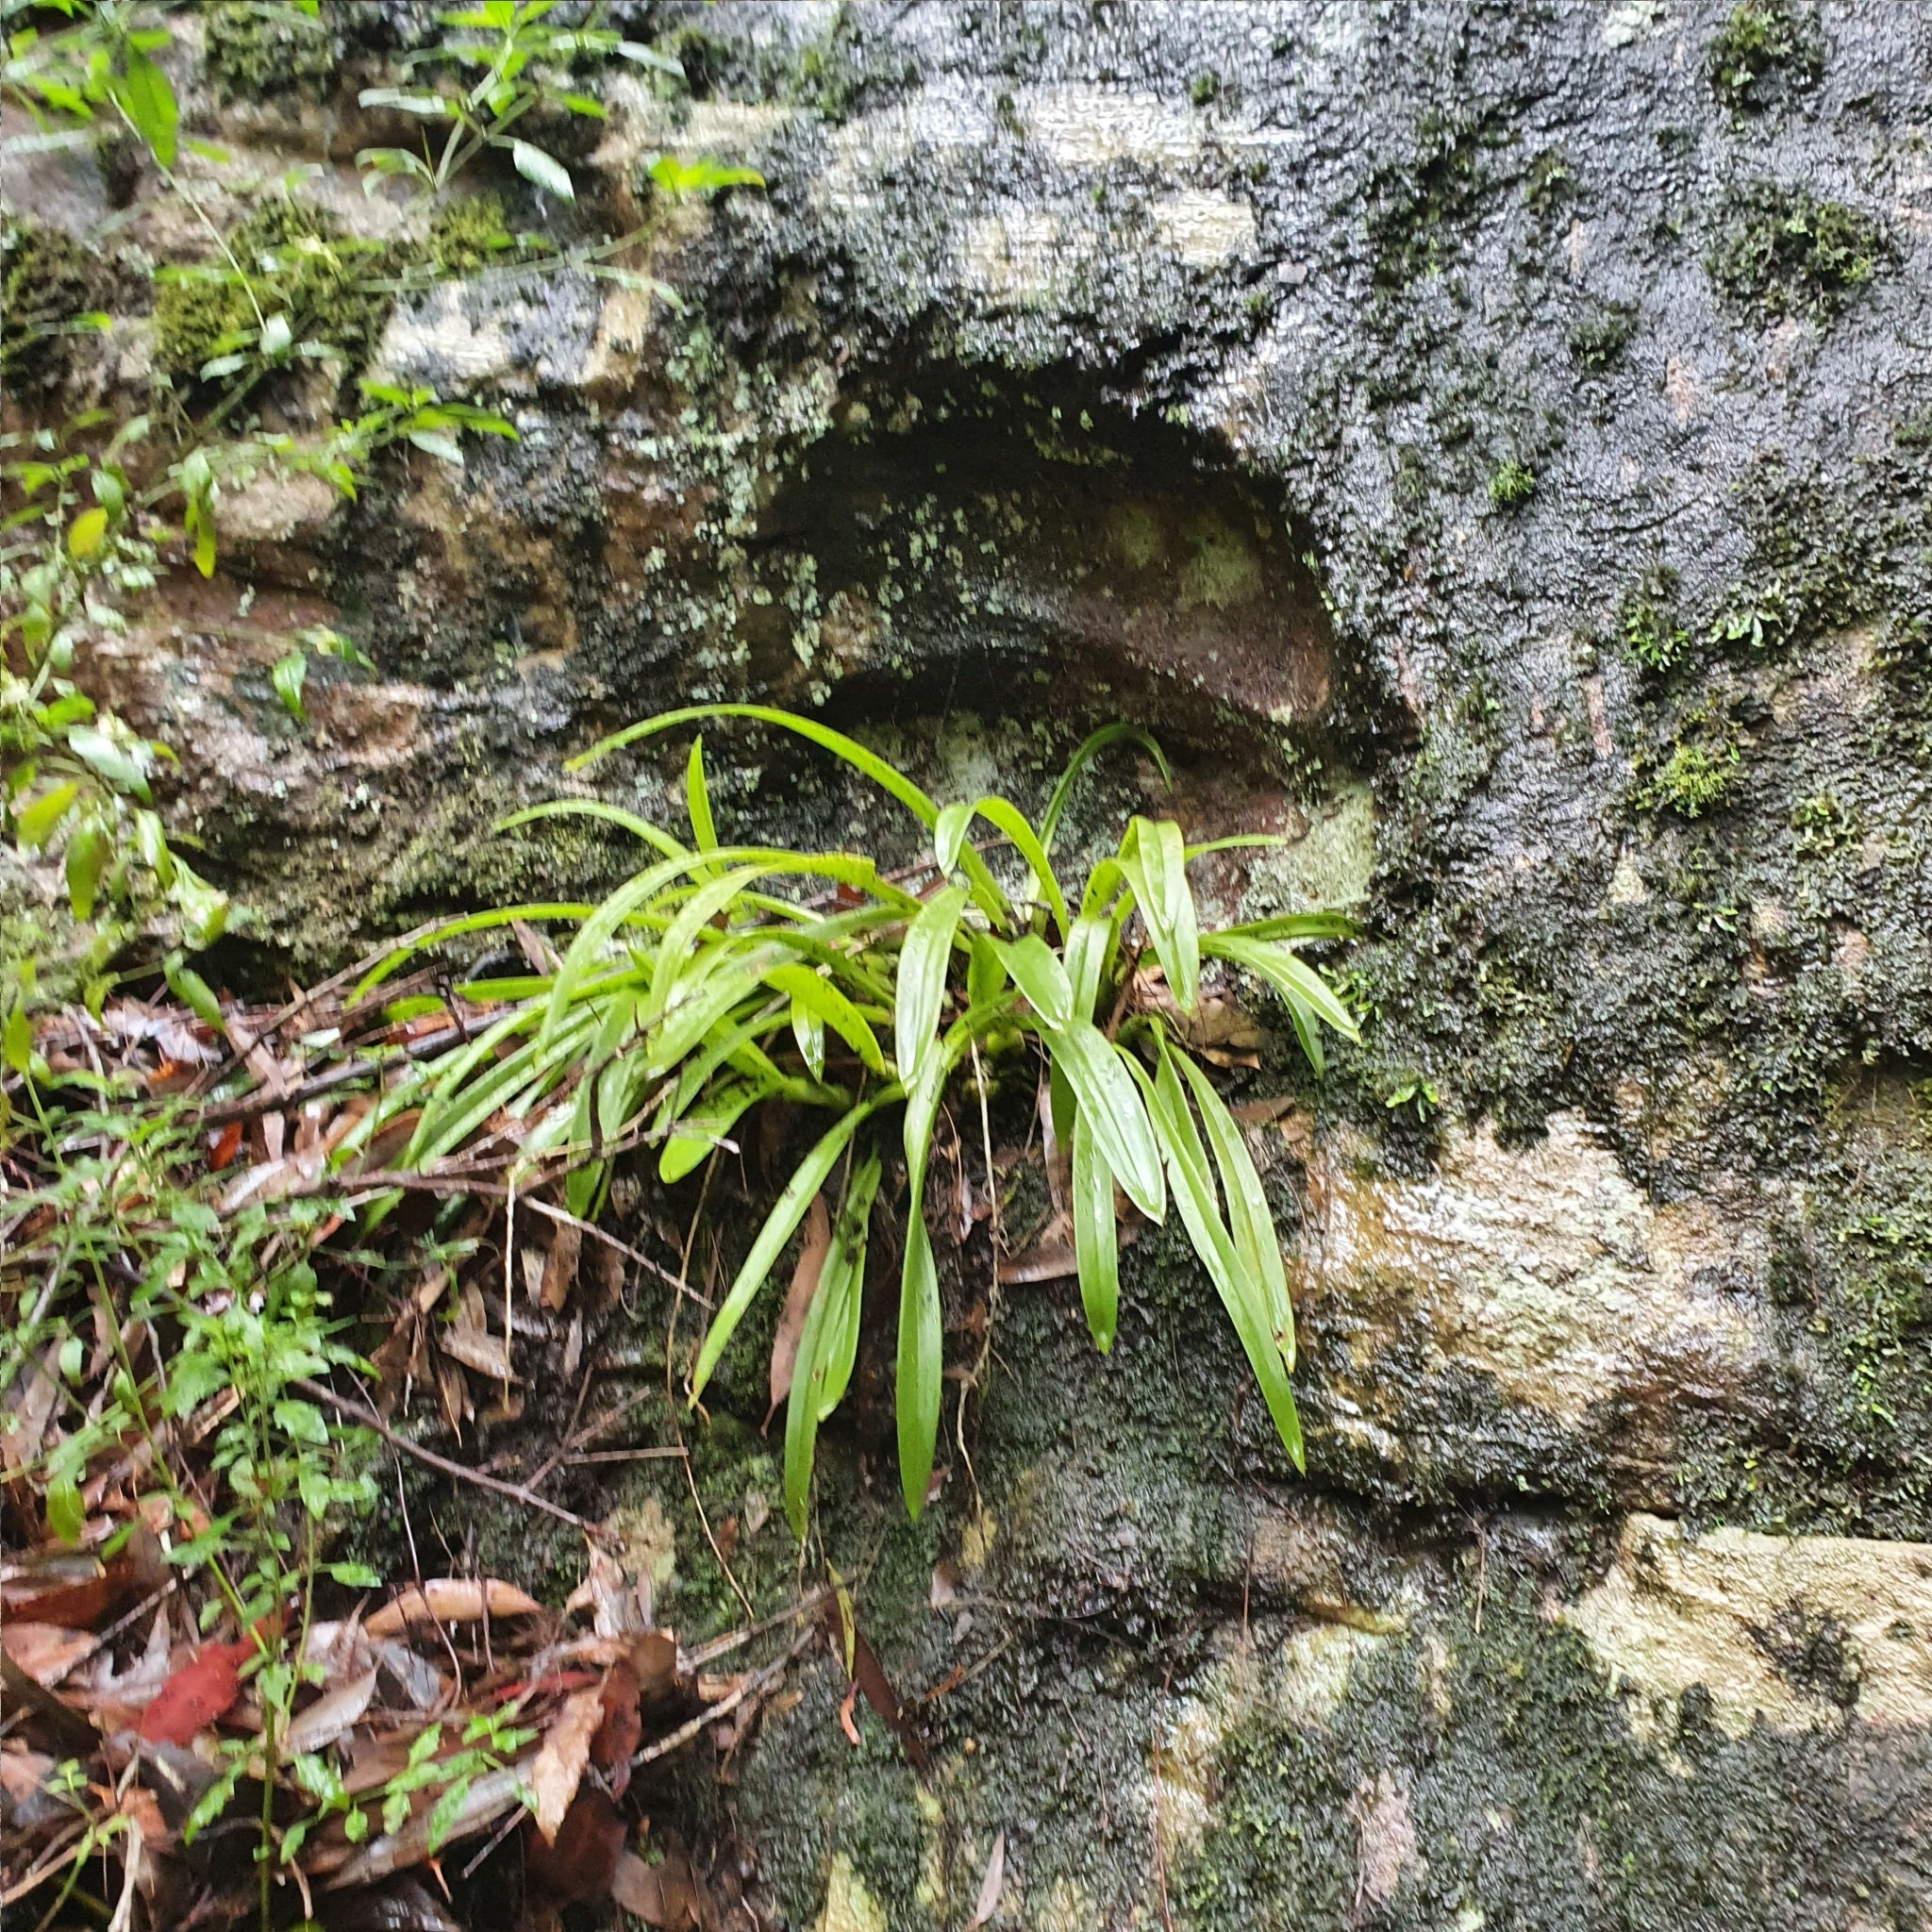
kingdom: Plantae
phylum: Tracheophyta
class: Liliopsida
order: Asparagales
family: Orchidaceae
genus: Liparis
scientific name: Liparis reflexa
